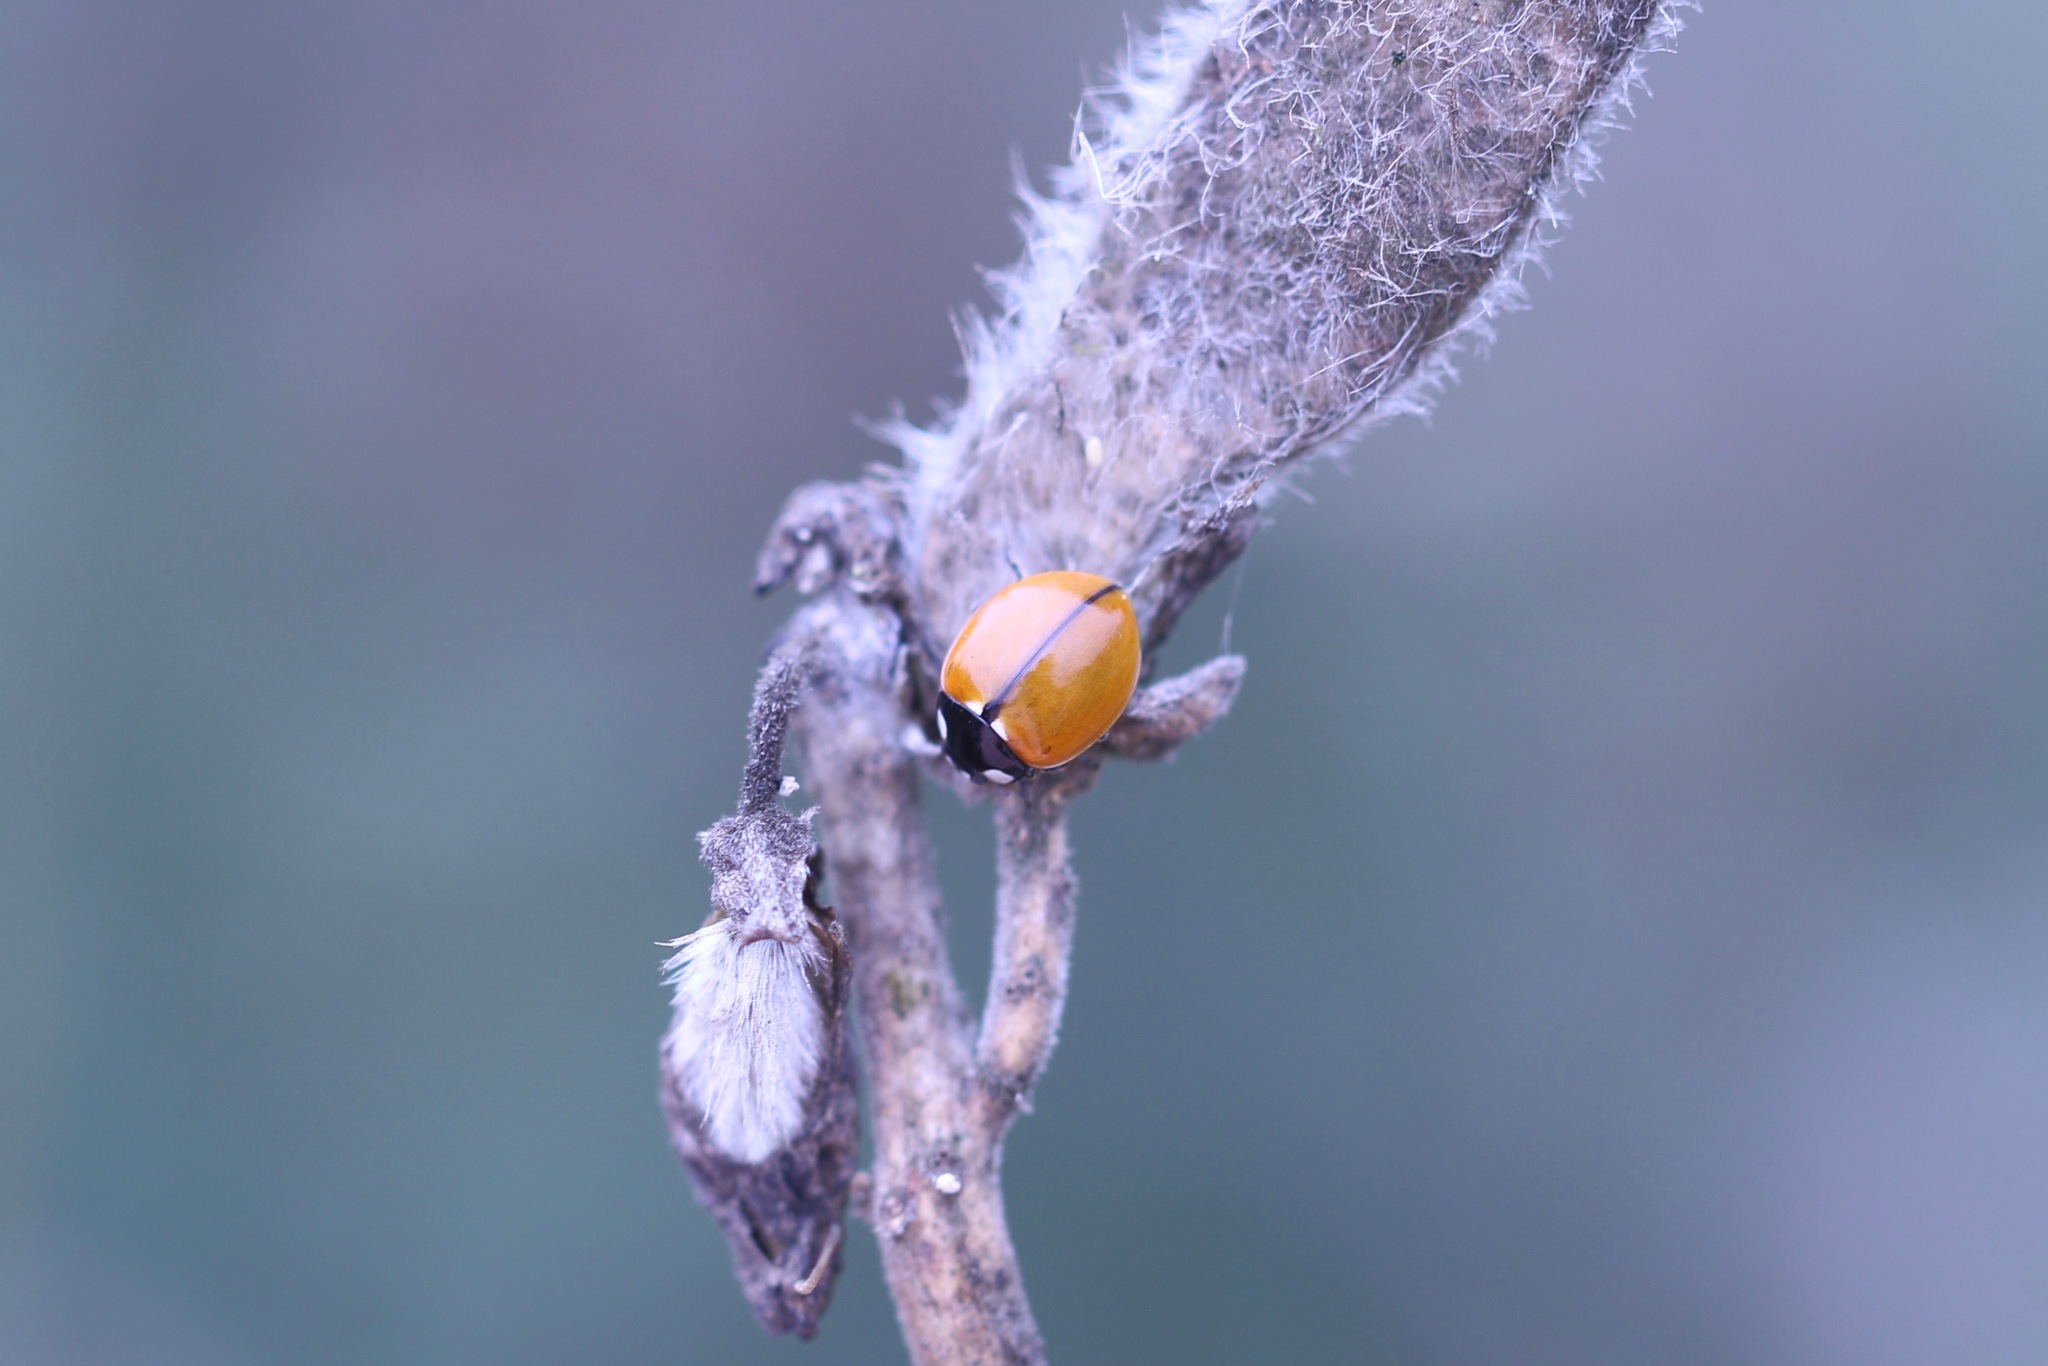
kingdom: Animalia
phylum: Arthropoda
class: Insecta
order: Coleoptera
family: Coccinellidae
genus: Coccinella
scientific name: Coccinella californica
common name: Lady beetle
